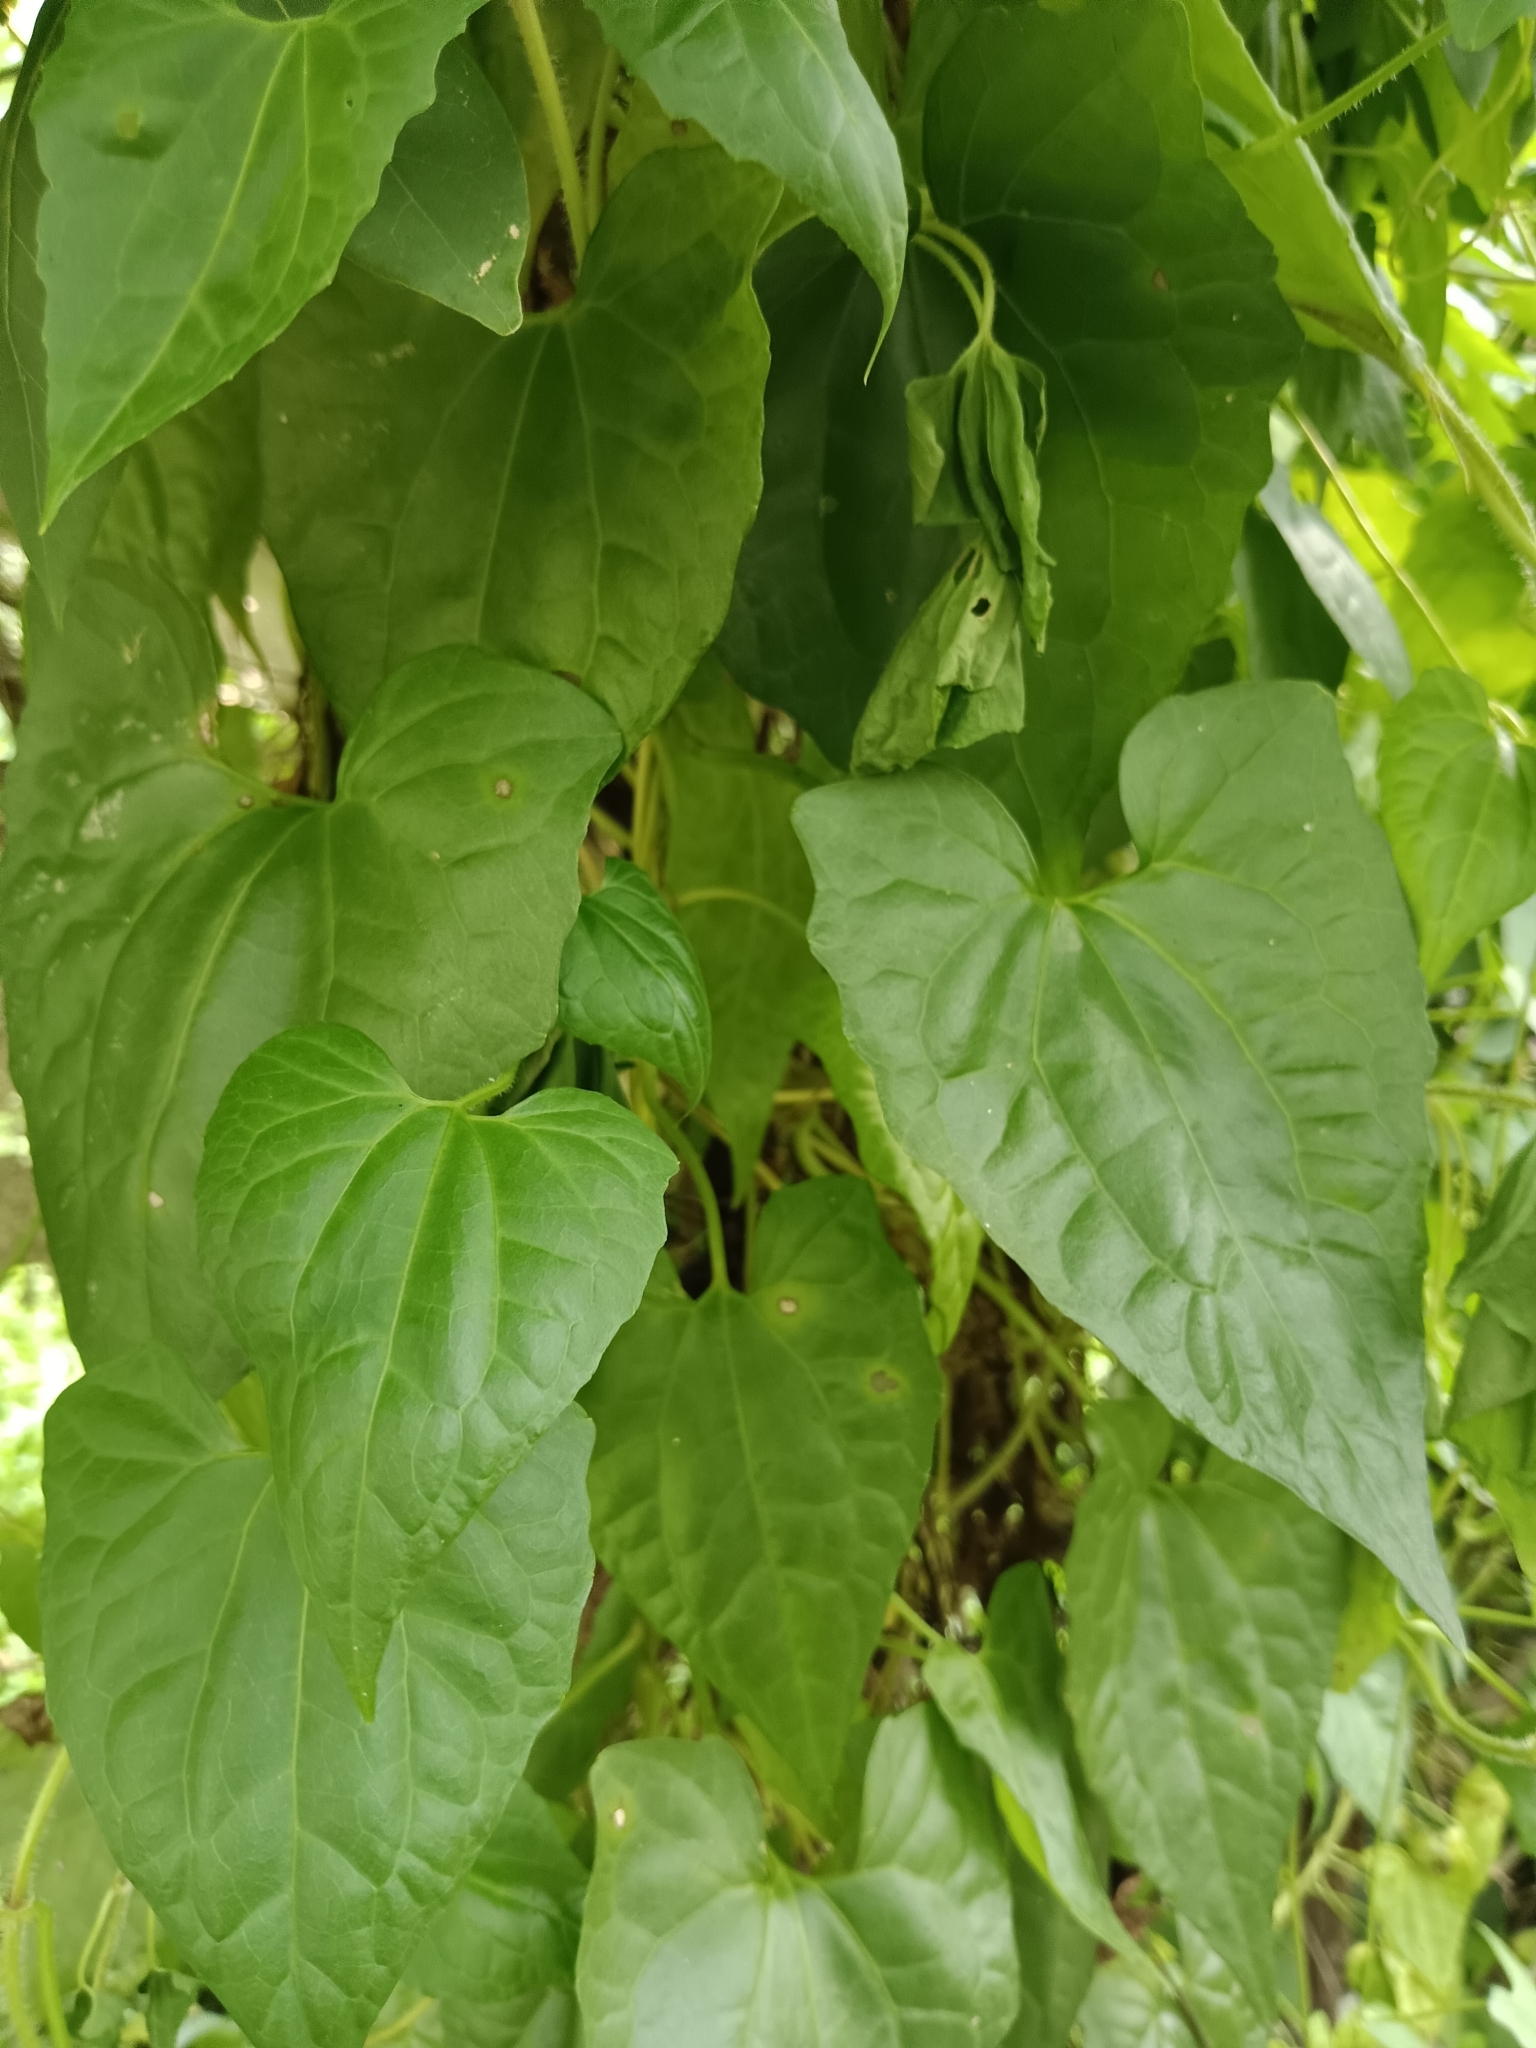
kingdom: Plantae
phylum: Tracheophyta
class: Magnoliopsida
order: Asterales
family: Asteraceae
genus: Mikania
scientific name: Mikania micrantha
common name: Mile-a-minute
